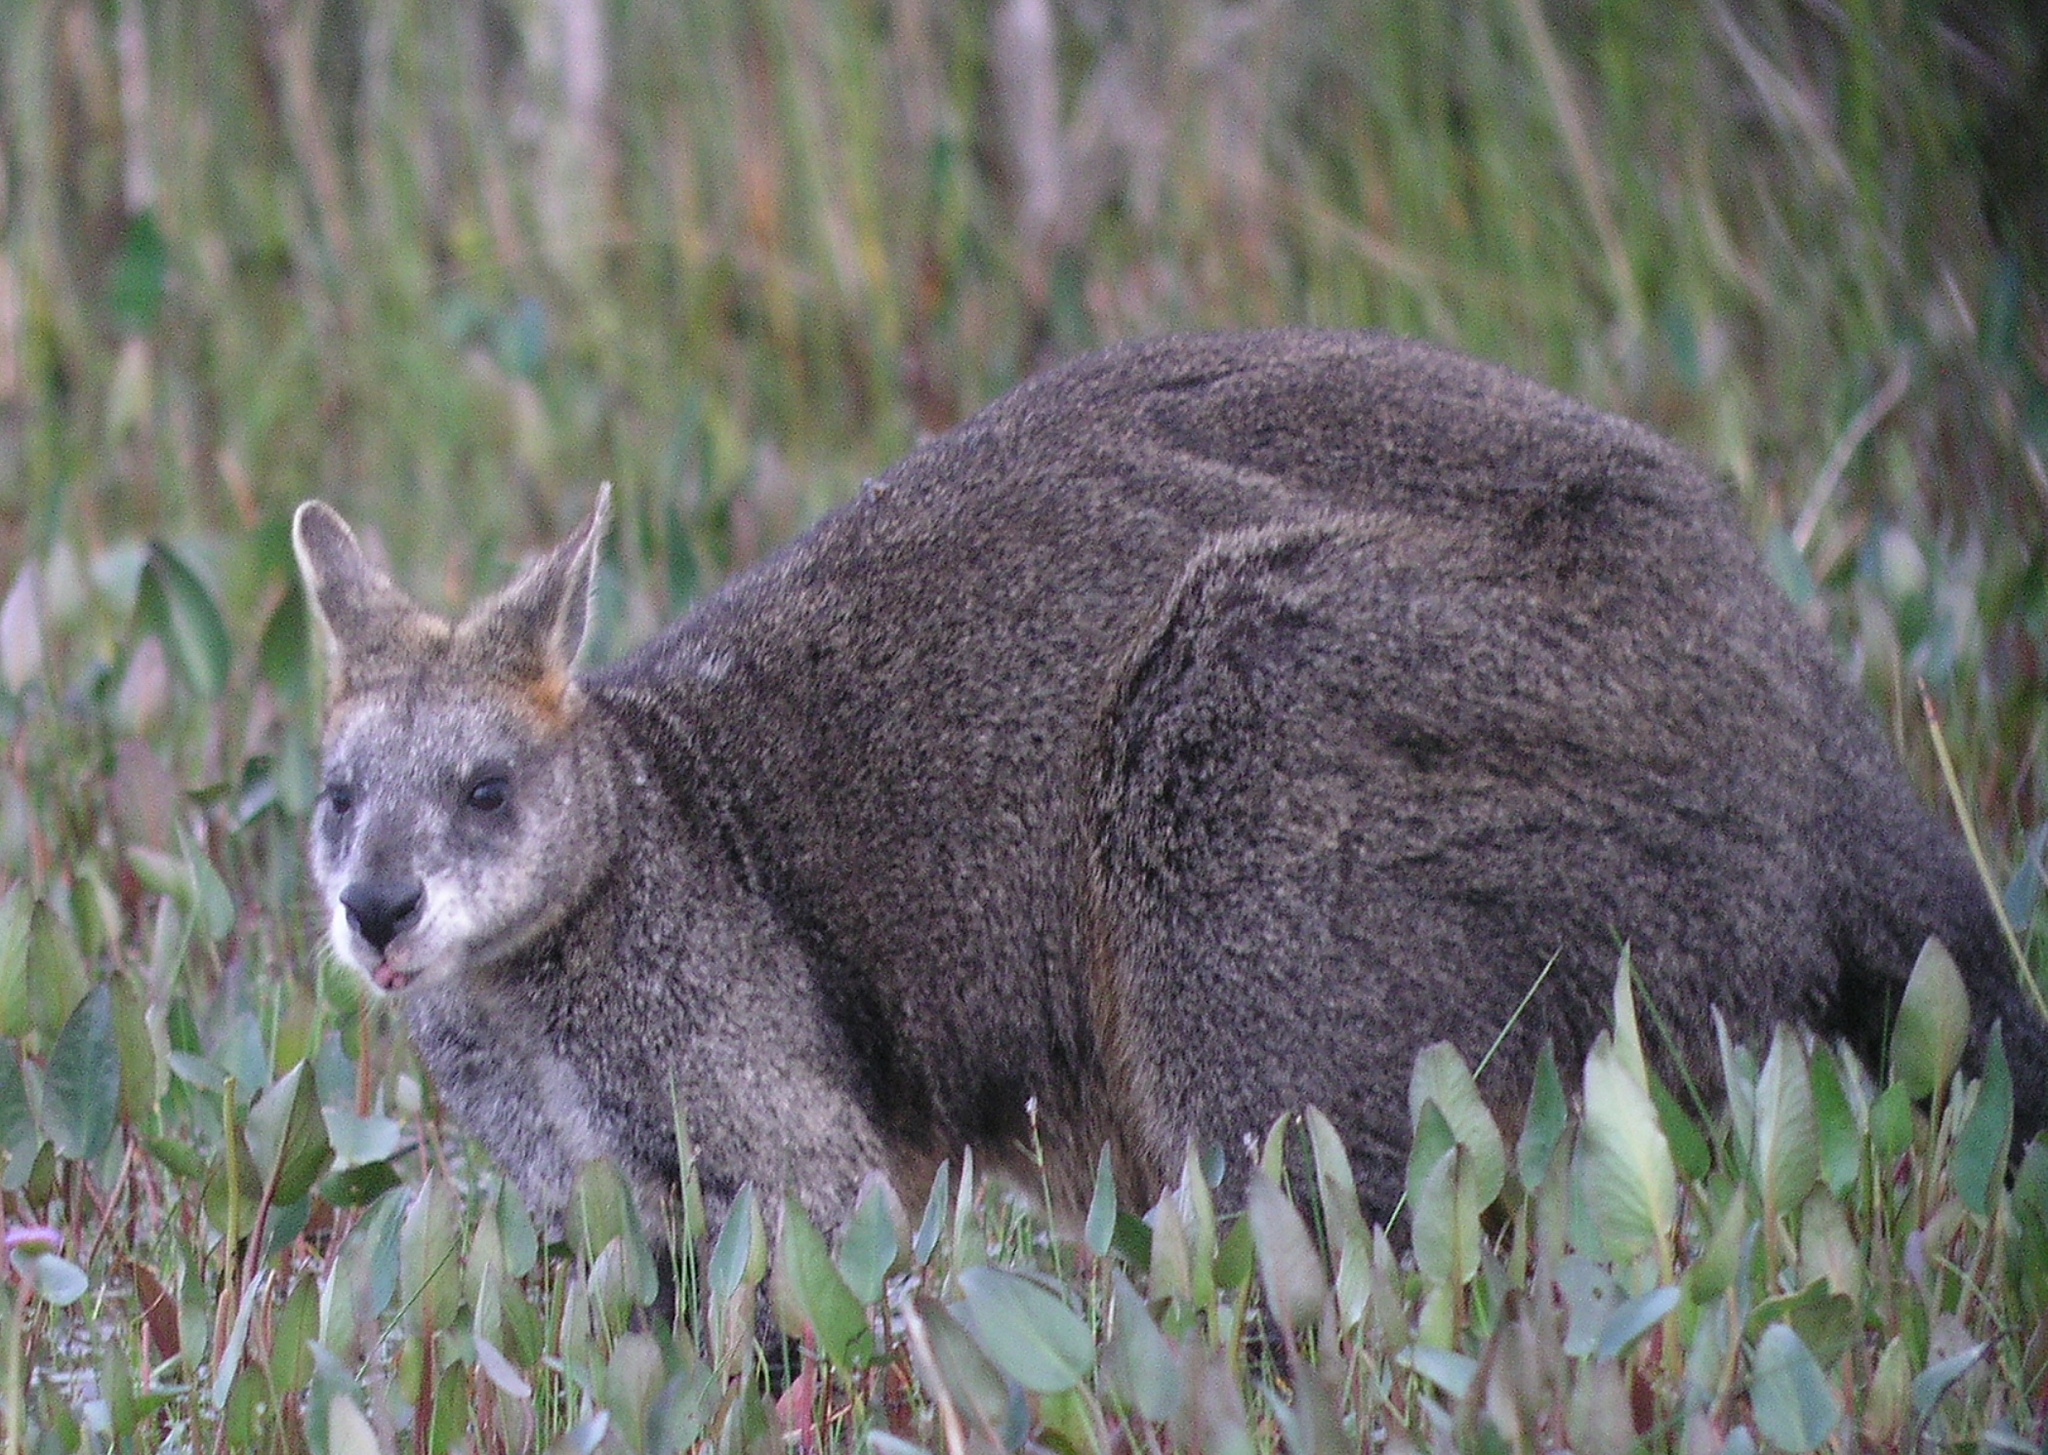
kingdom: Animalia
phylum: Chordata
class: Mammalia
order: Diprotodontia
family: Macropodidae
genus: Wallabia
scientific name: Wallabia bicolor
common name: Swamp wallaby
